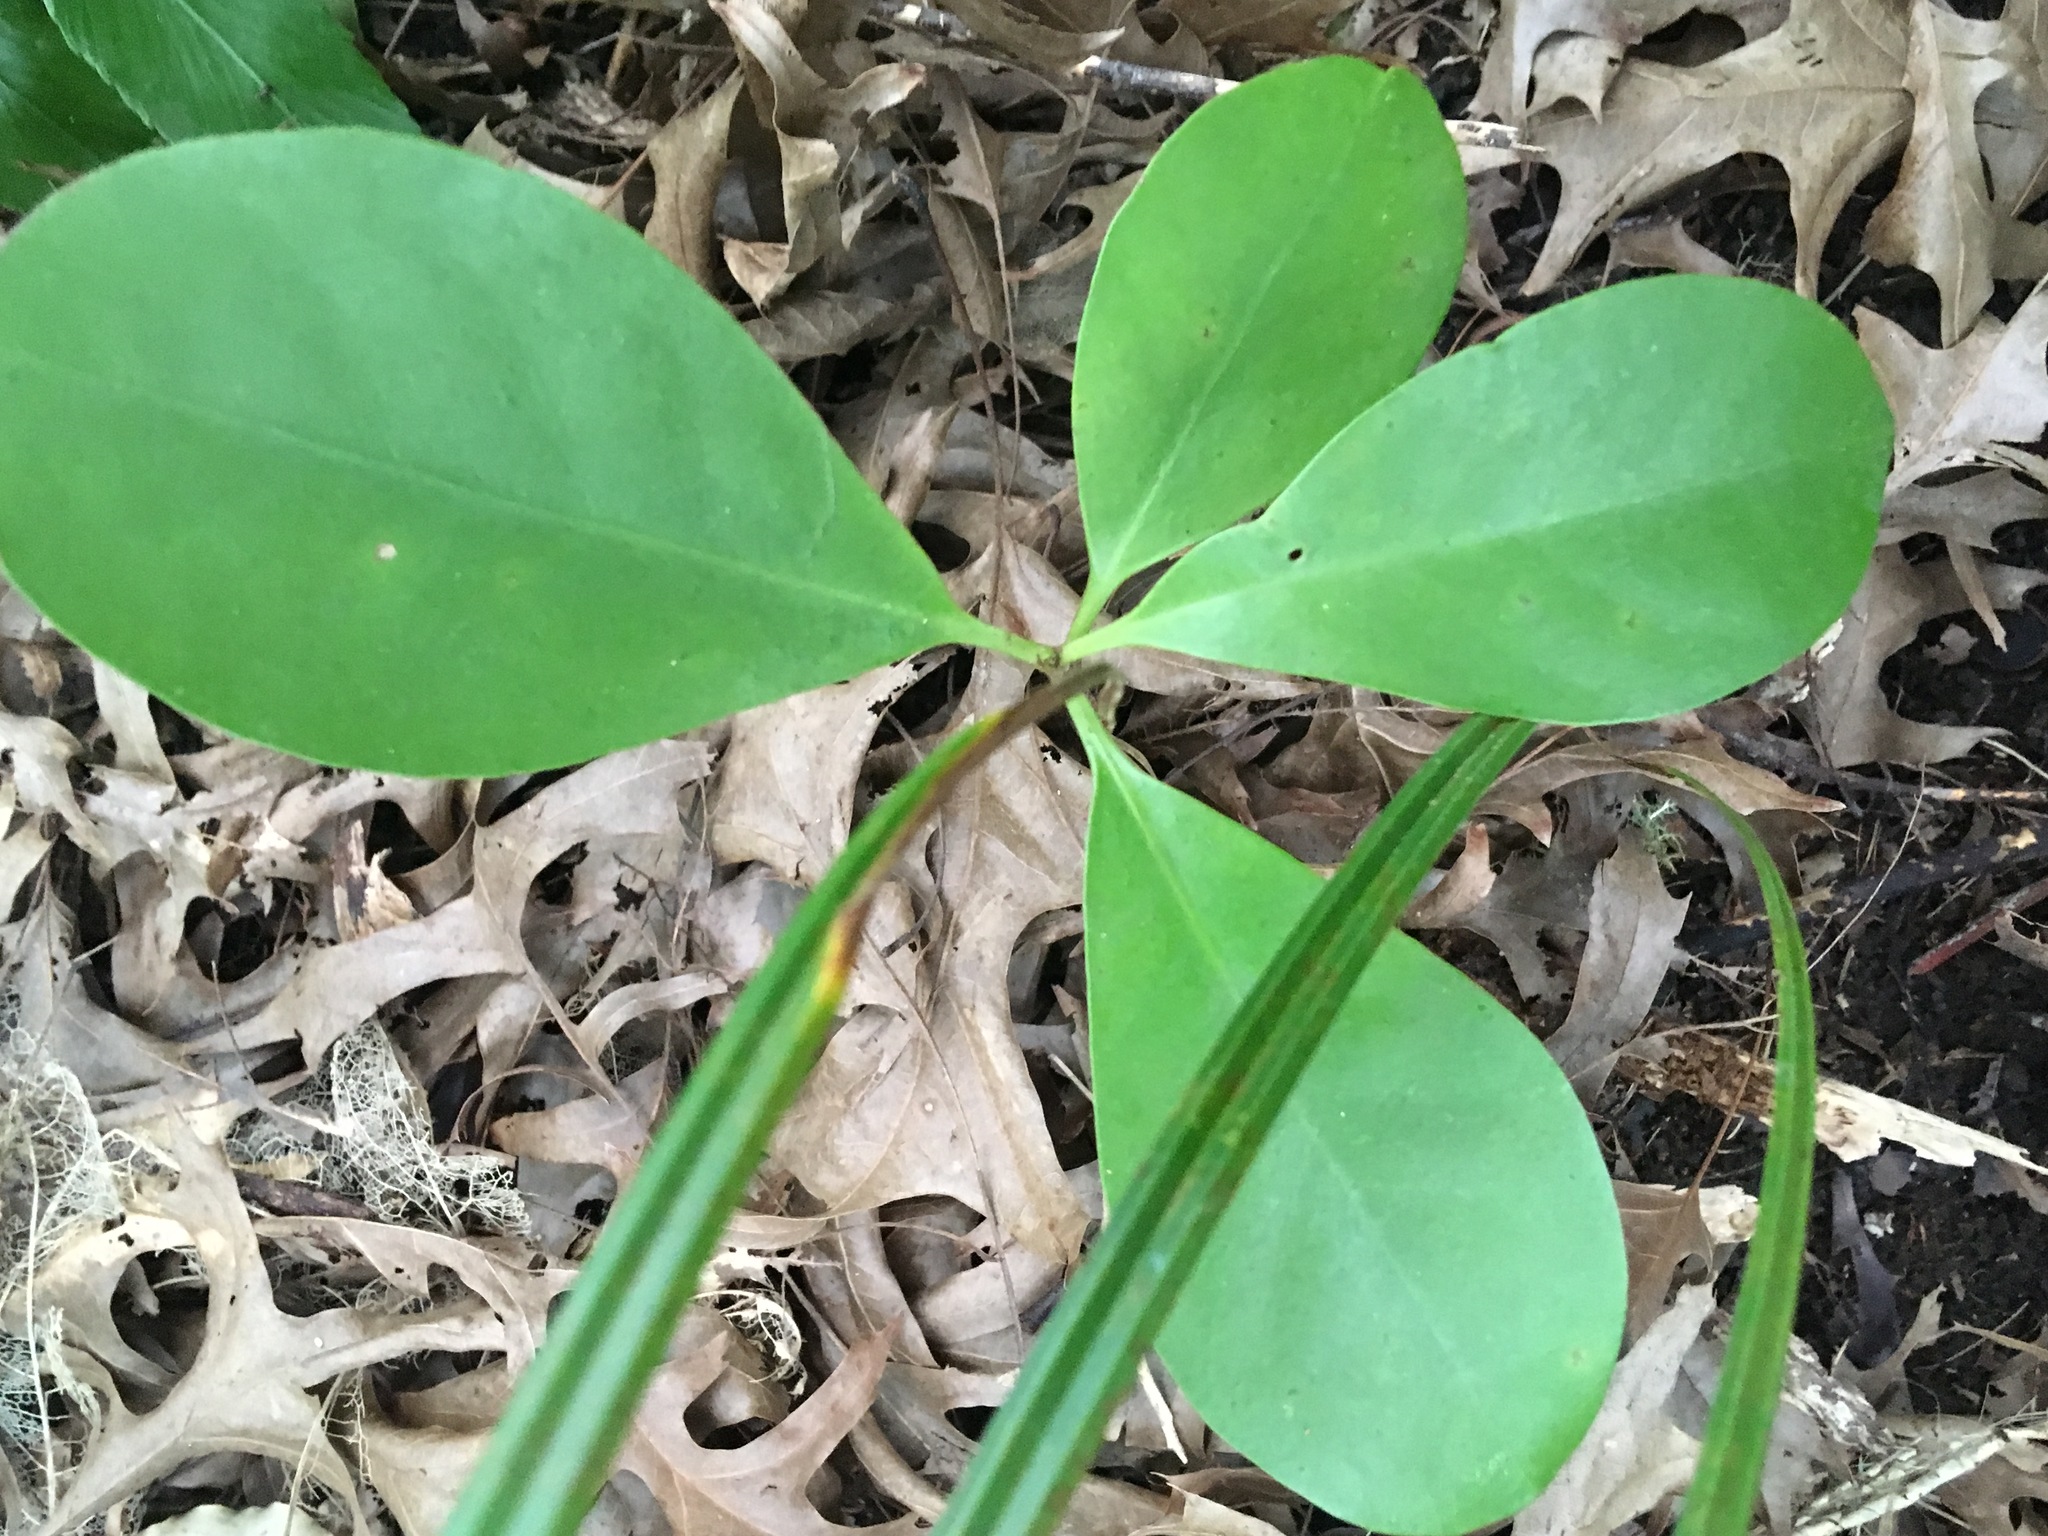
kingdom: Plantae
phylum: Tracheophyta
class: Magnoliopsida
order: Cucurbitales
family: Corynocarpaceae
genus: Corynocarpus
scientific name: Corynocarpus laevigatus
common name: New zealand laurel
